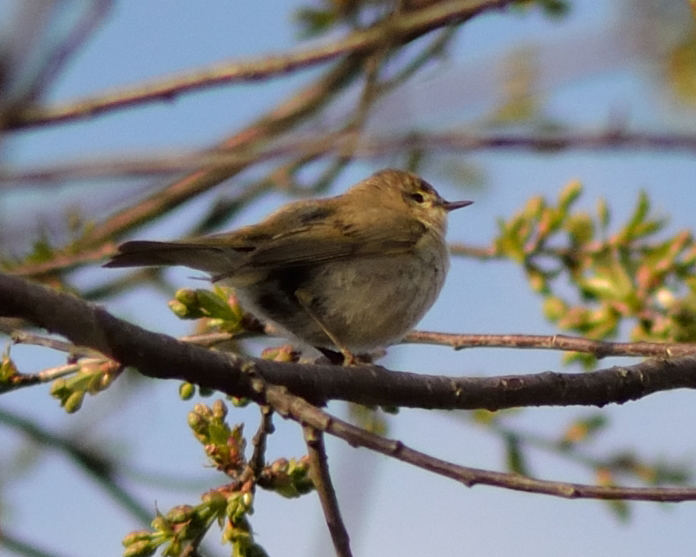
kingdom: Animalia
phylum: Chordata
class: Aves
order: Passeriformes
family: Phylloscopidae
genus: Phylloscopus
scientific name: Phylloscopus trochilus
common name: Willow warbler
